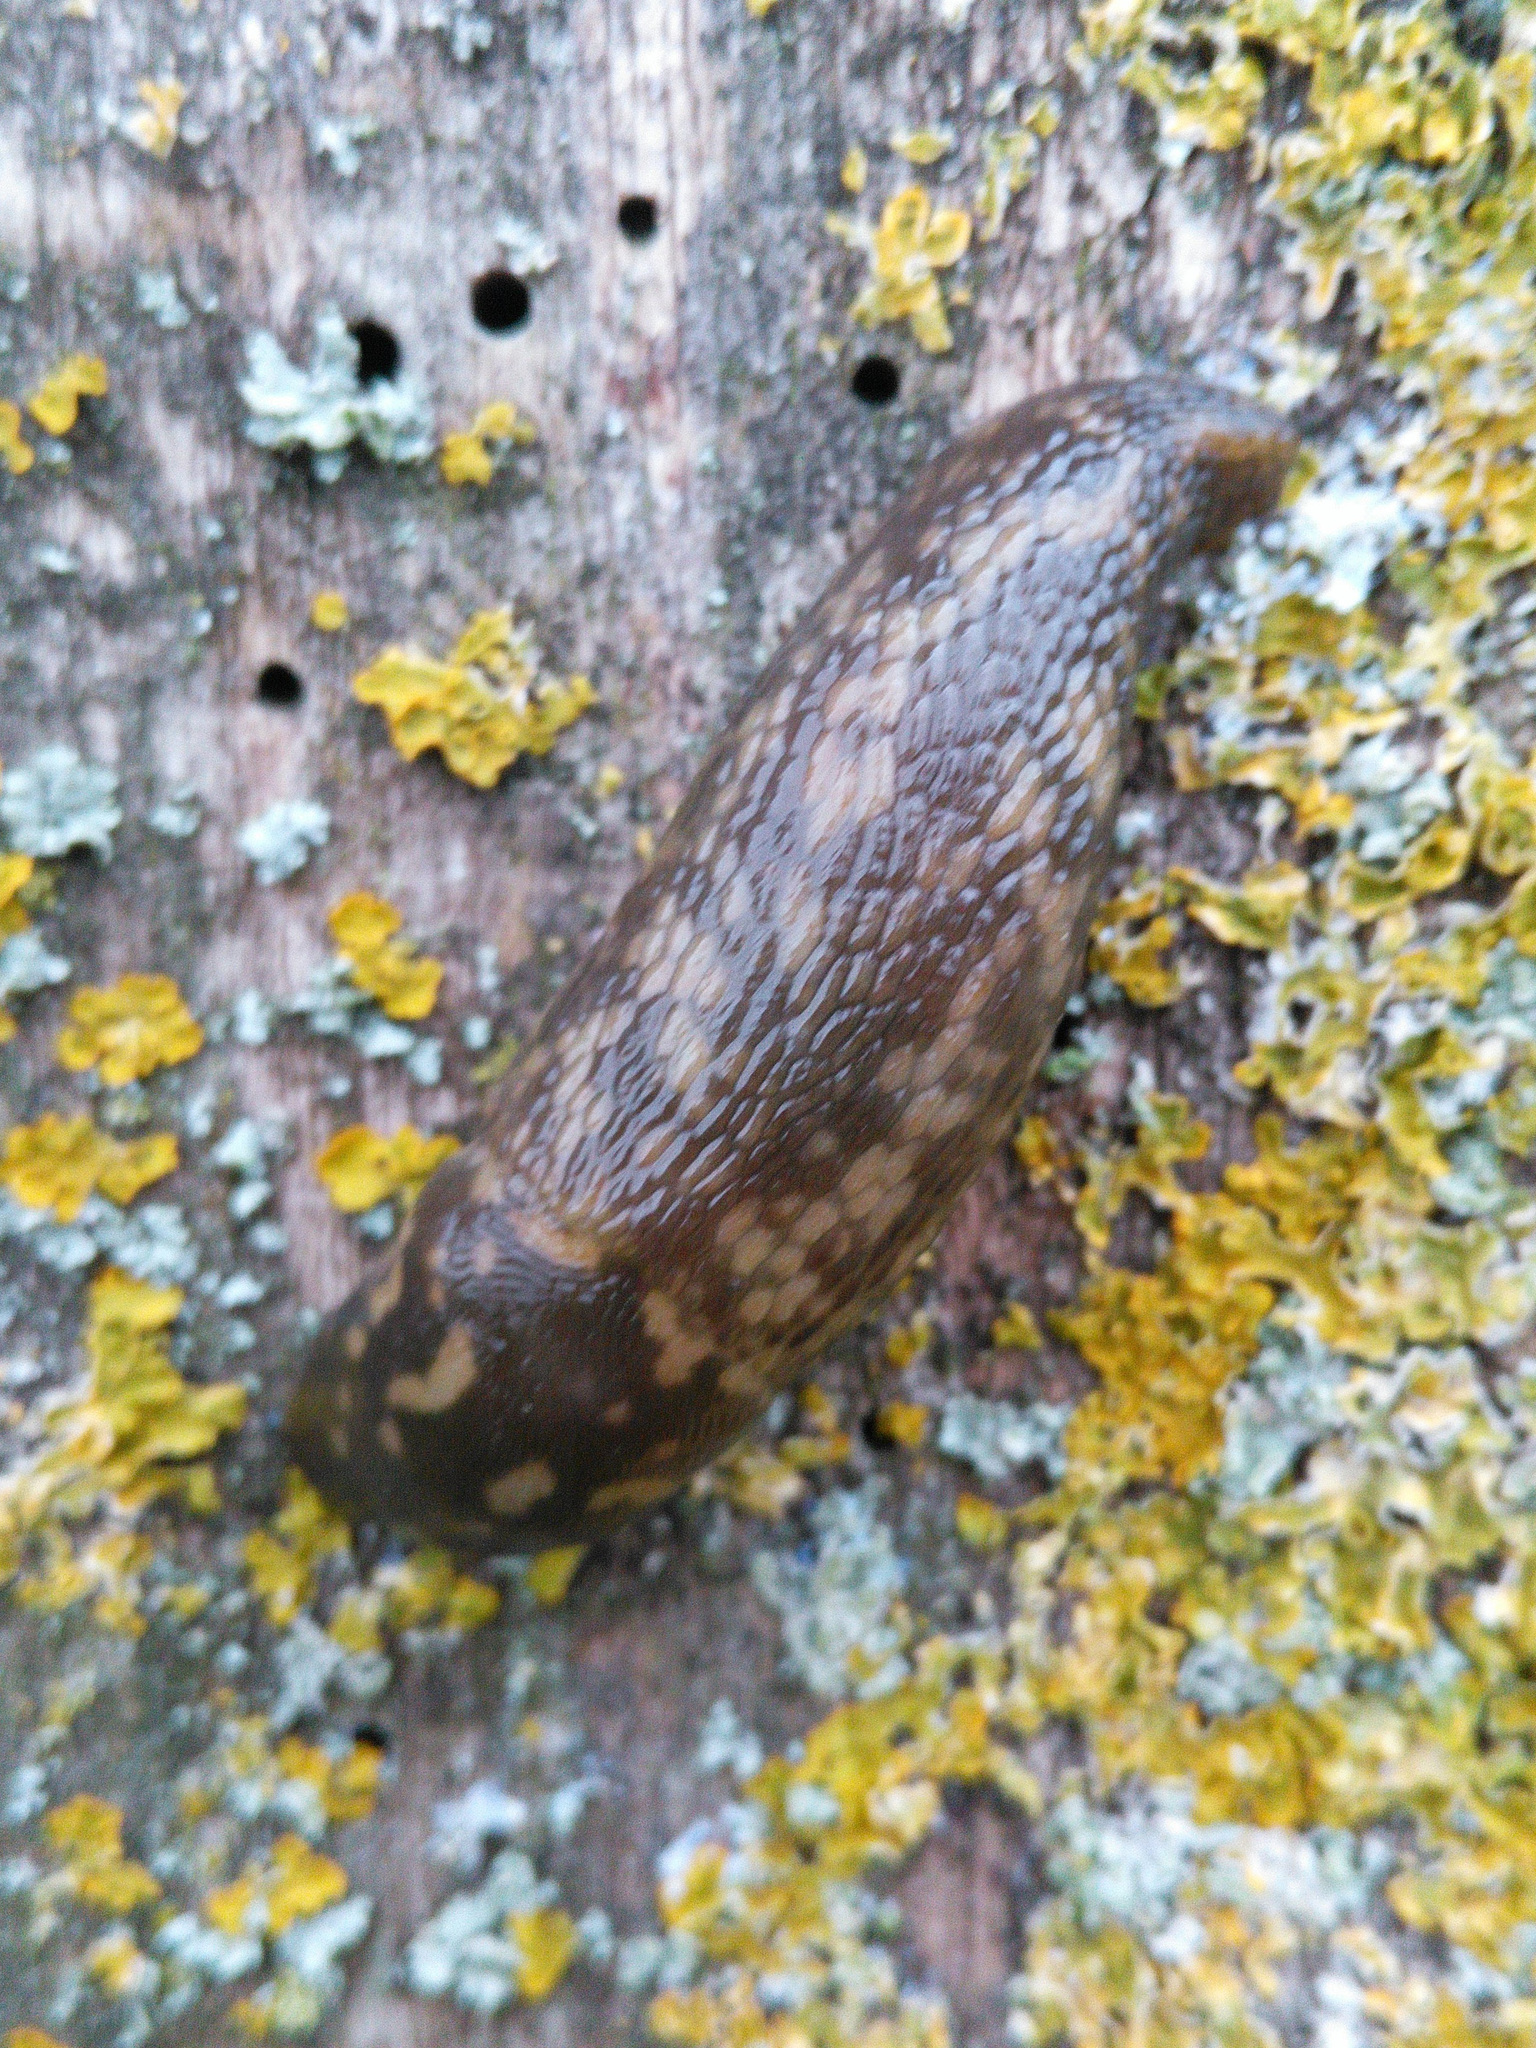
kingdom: Animalia
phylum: Mollusca
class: Gastropoda
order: Stylommatophora
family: Limacidae
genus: Limacus
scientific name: Limacus maculatus
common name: Irish yellow slug
